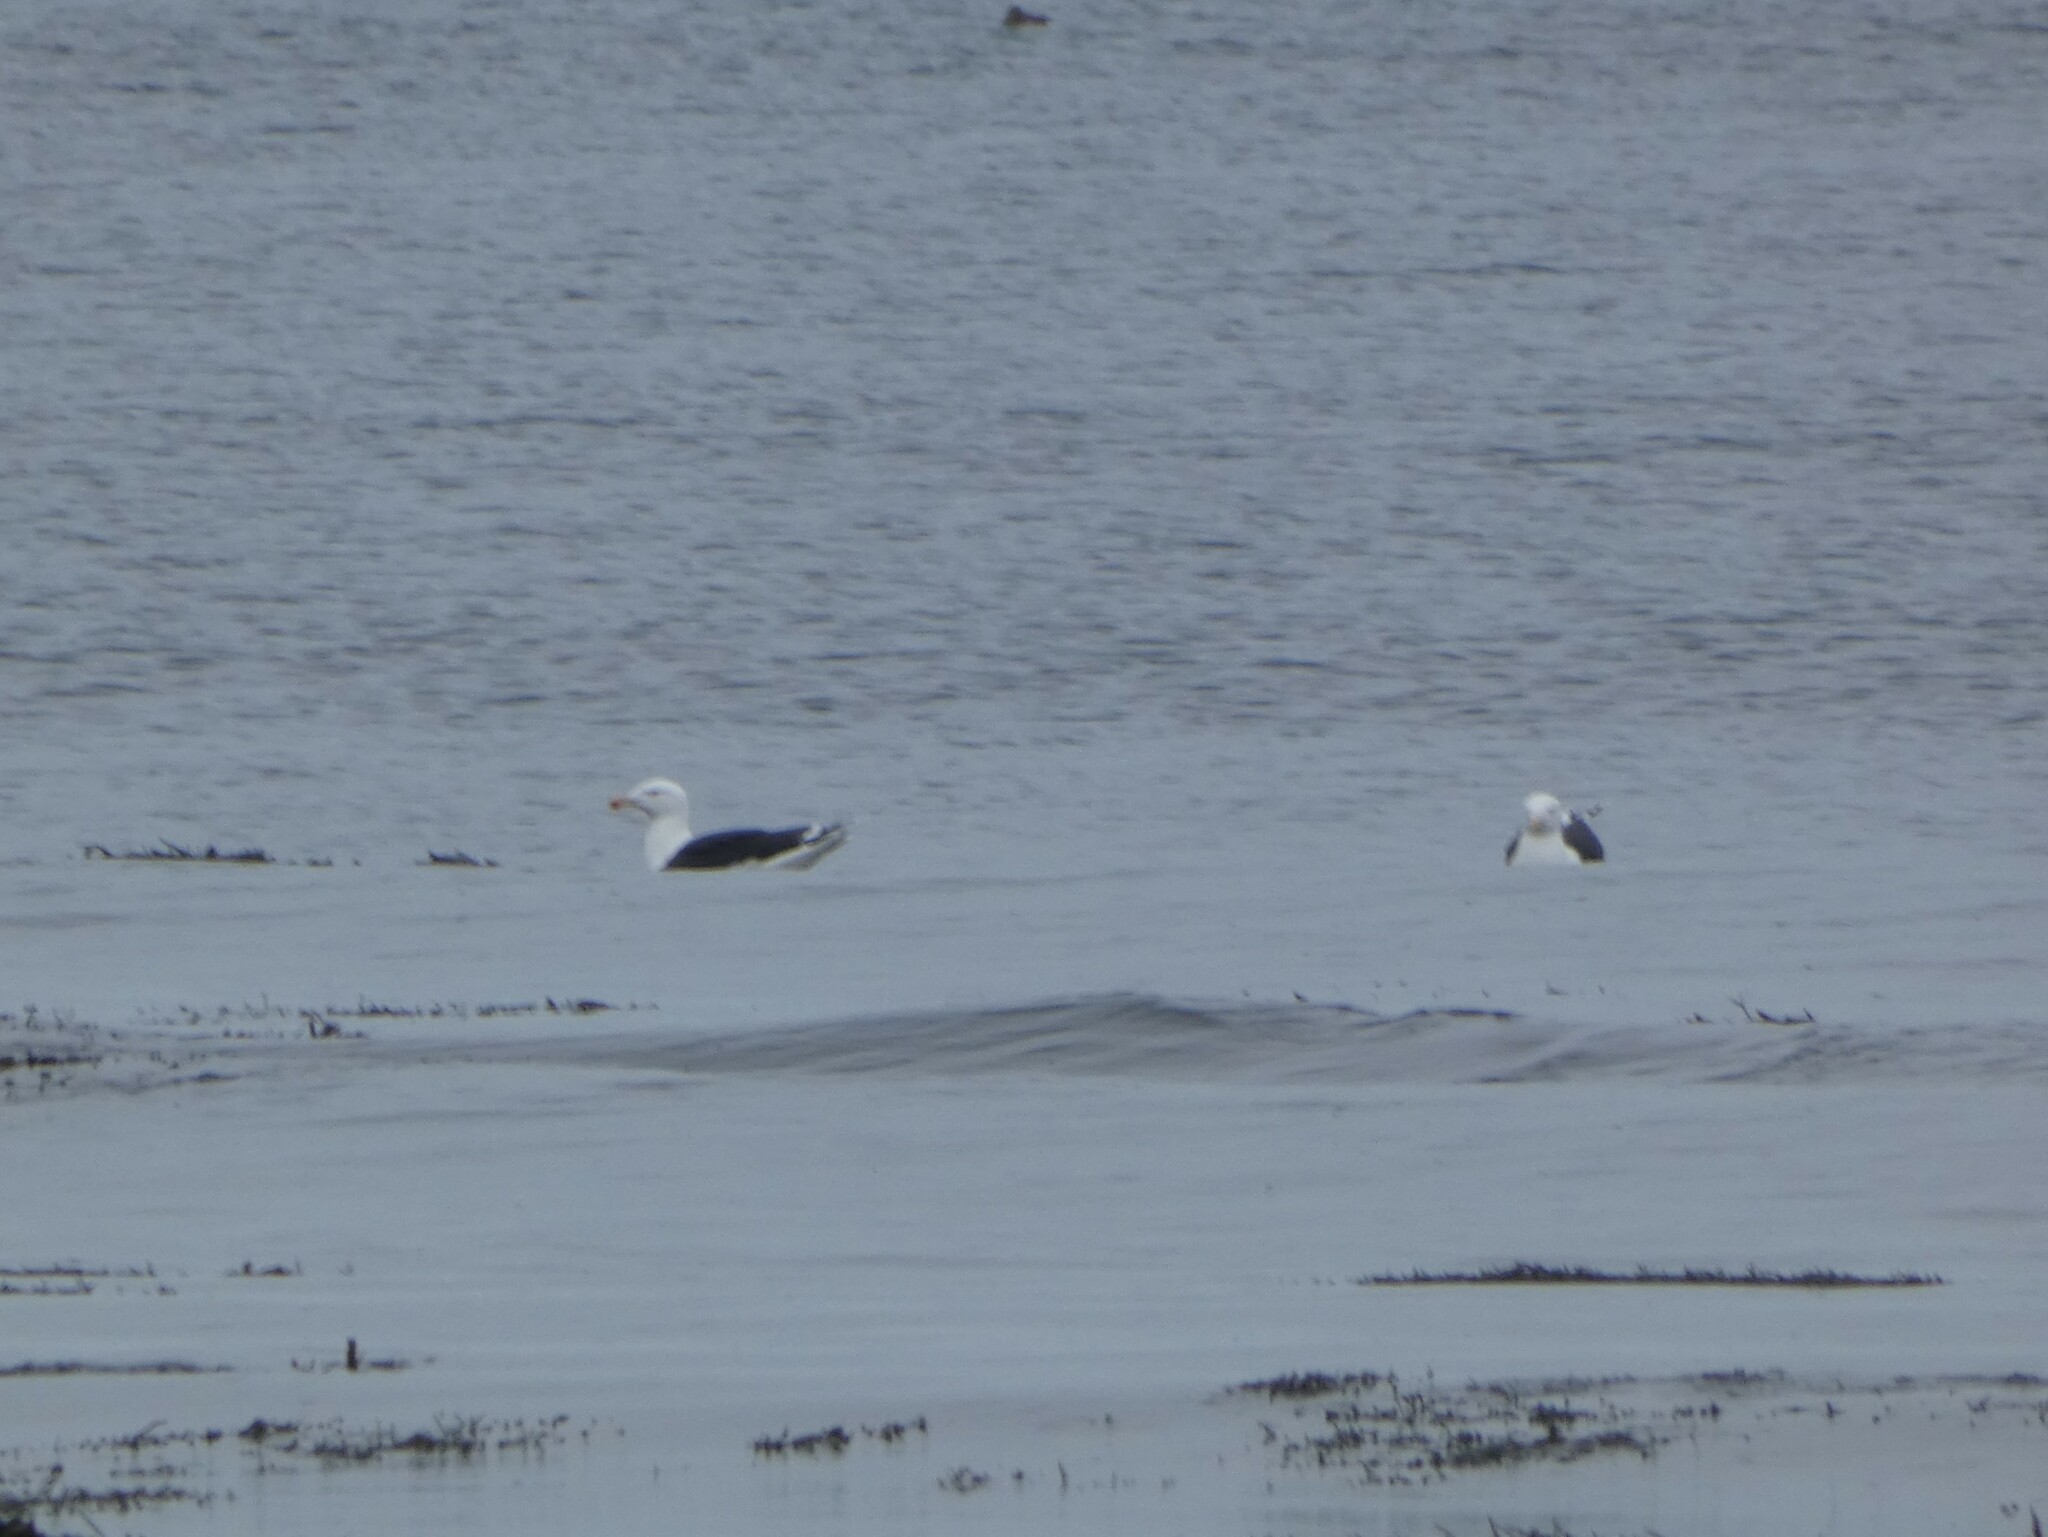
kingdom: Animalia
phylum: Chordata
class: Aves
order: Charadriiformes
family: Laridae
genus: Larus
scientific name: Larus marinus
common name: Great black-backed gull
